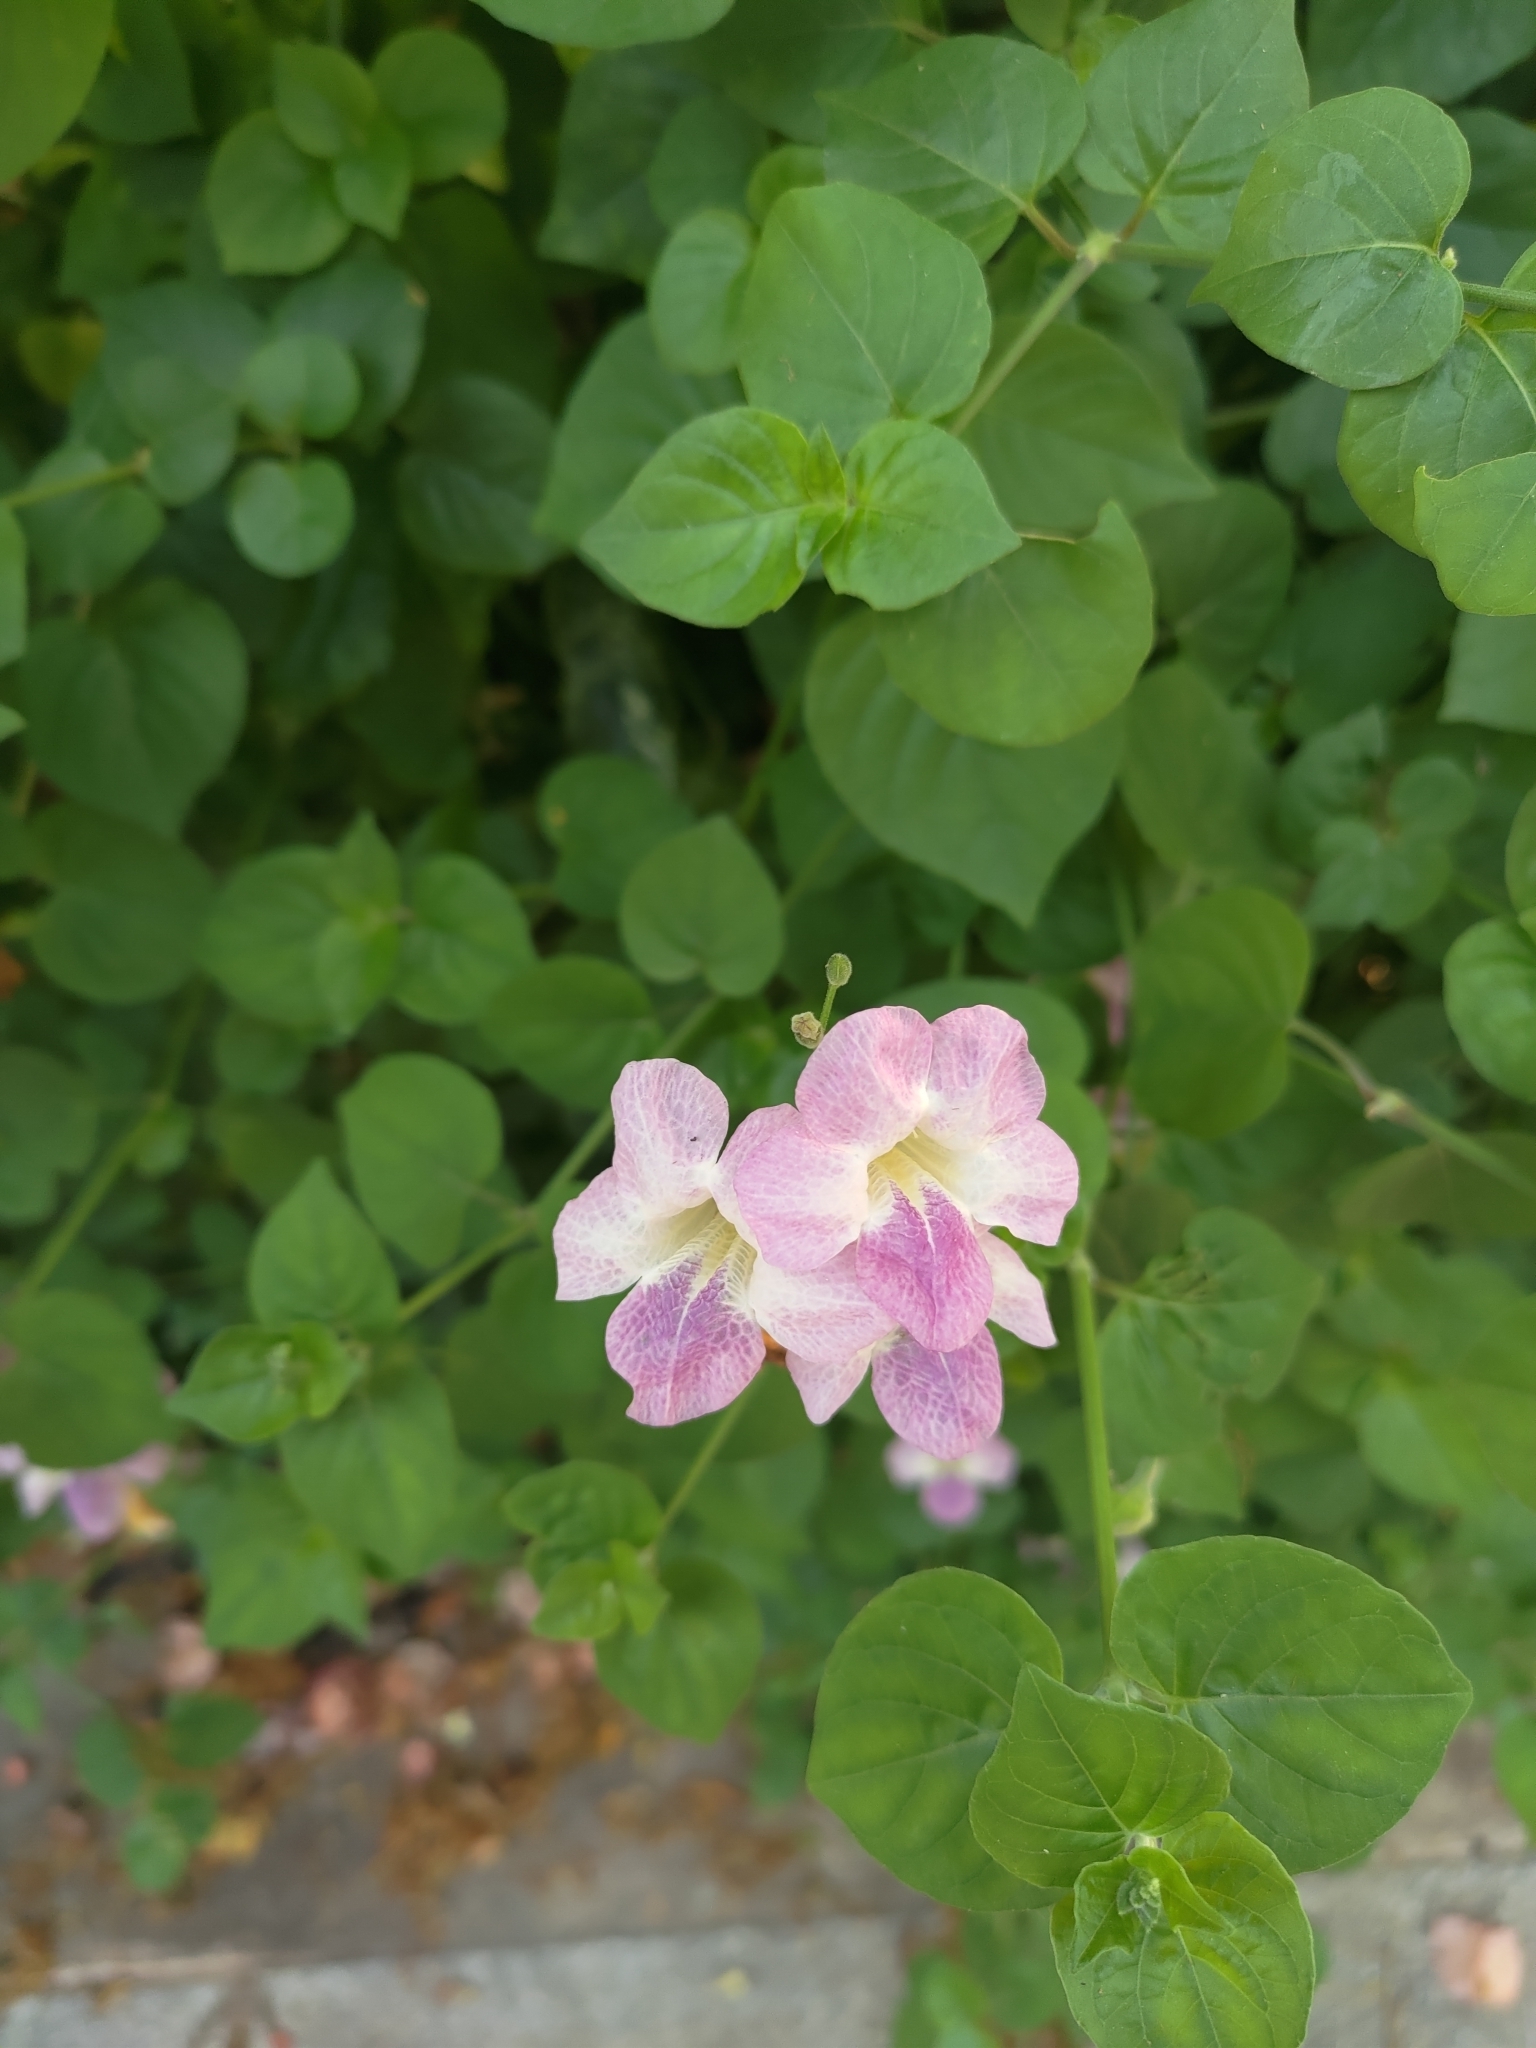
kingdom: Plantae
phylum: Tracheophyta
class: Magnoliopsida
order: Lamiales
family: Acanthaceae
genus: Asystasia
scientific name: Asystasia gangetica
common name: Chinese violet
